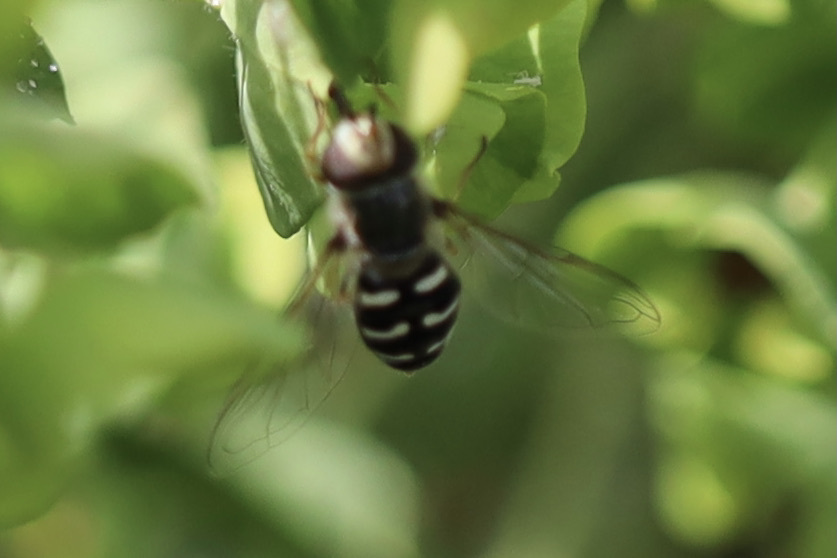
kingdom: Animalia
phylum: Arthropoda
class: Insecta
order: Diptera
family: Syrphidae
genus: Scaeva
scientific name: Scaeva affinis
